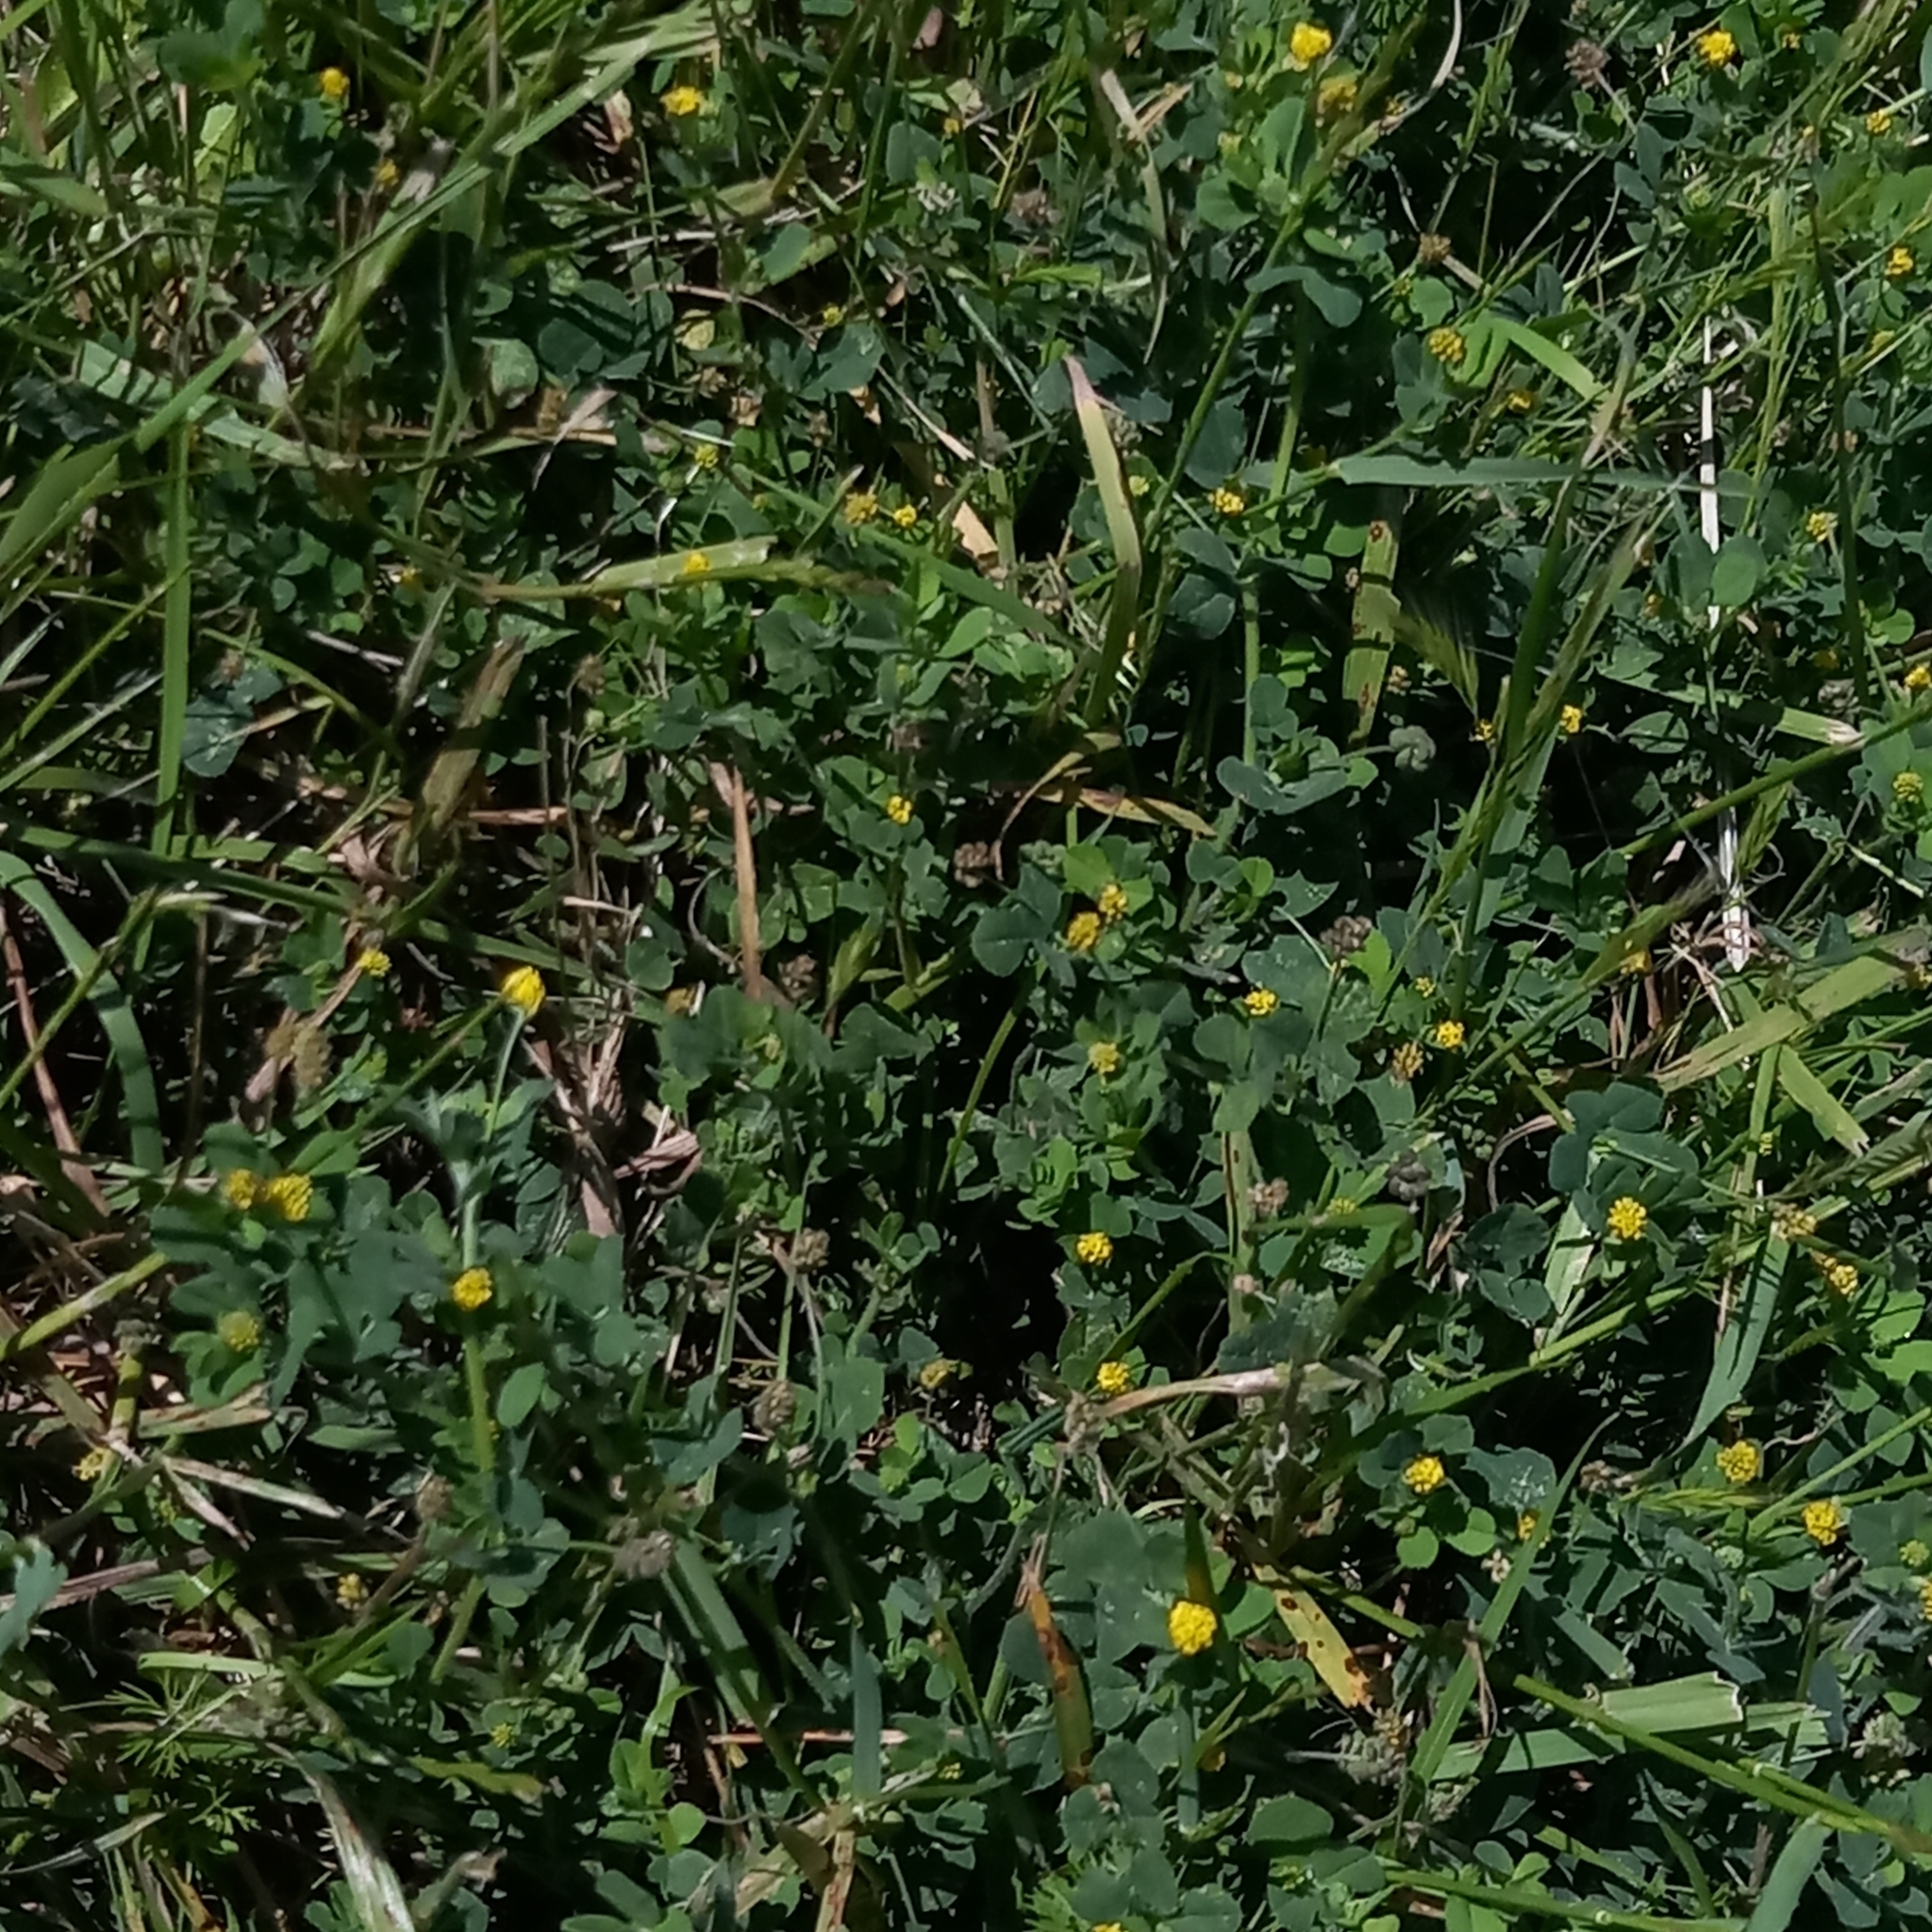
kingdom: Plantae
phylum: Tracheophyta
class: Magnoliopsida
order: Fabales
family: Fabaceae
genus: Medicago
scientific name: Medicago lupulina
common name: Black medick
